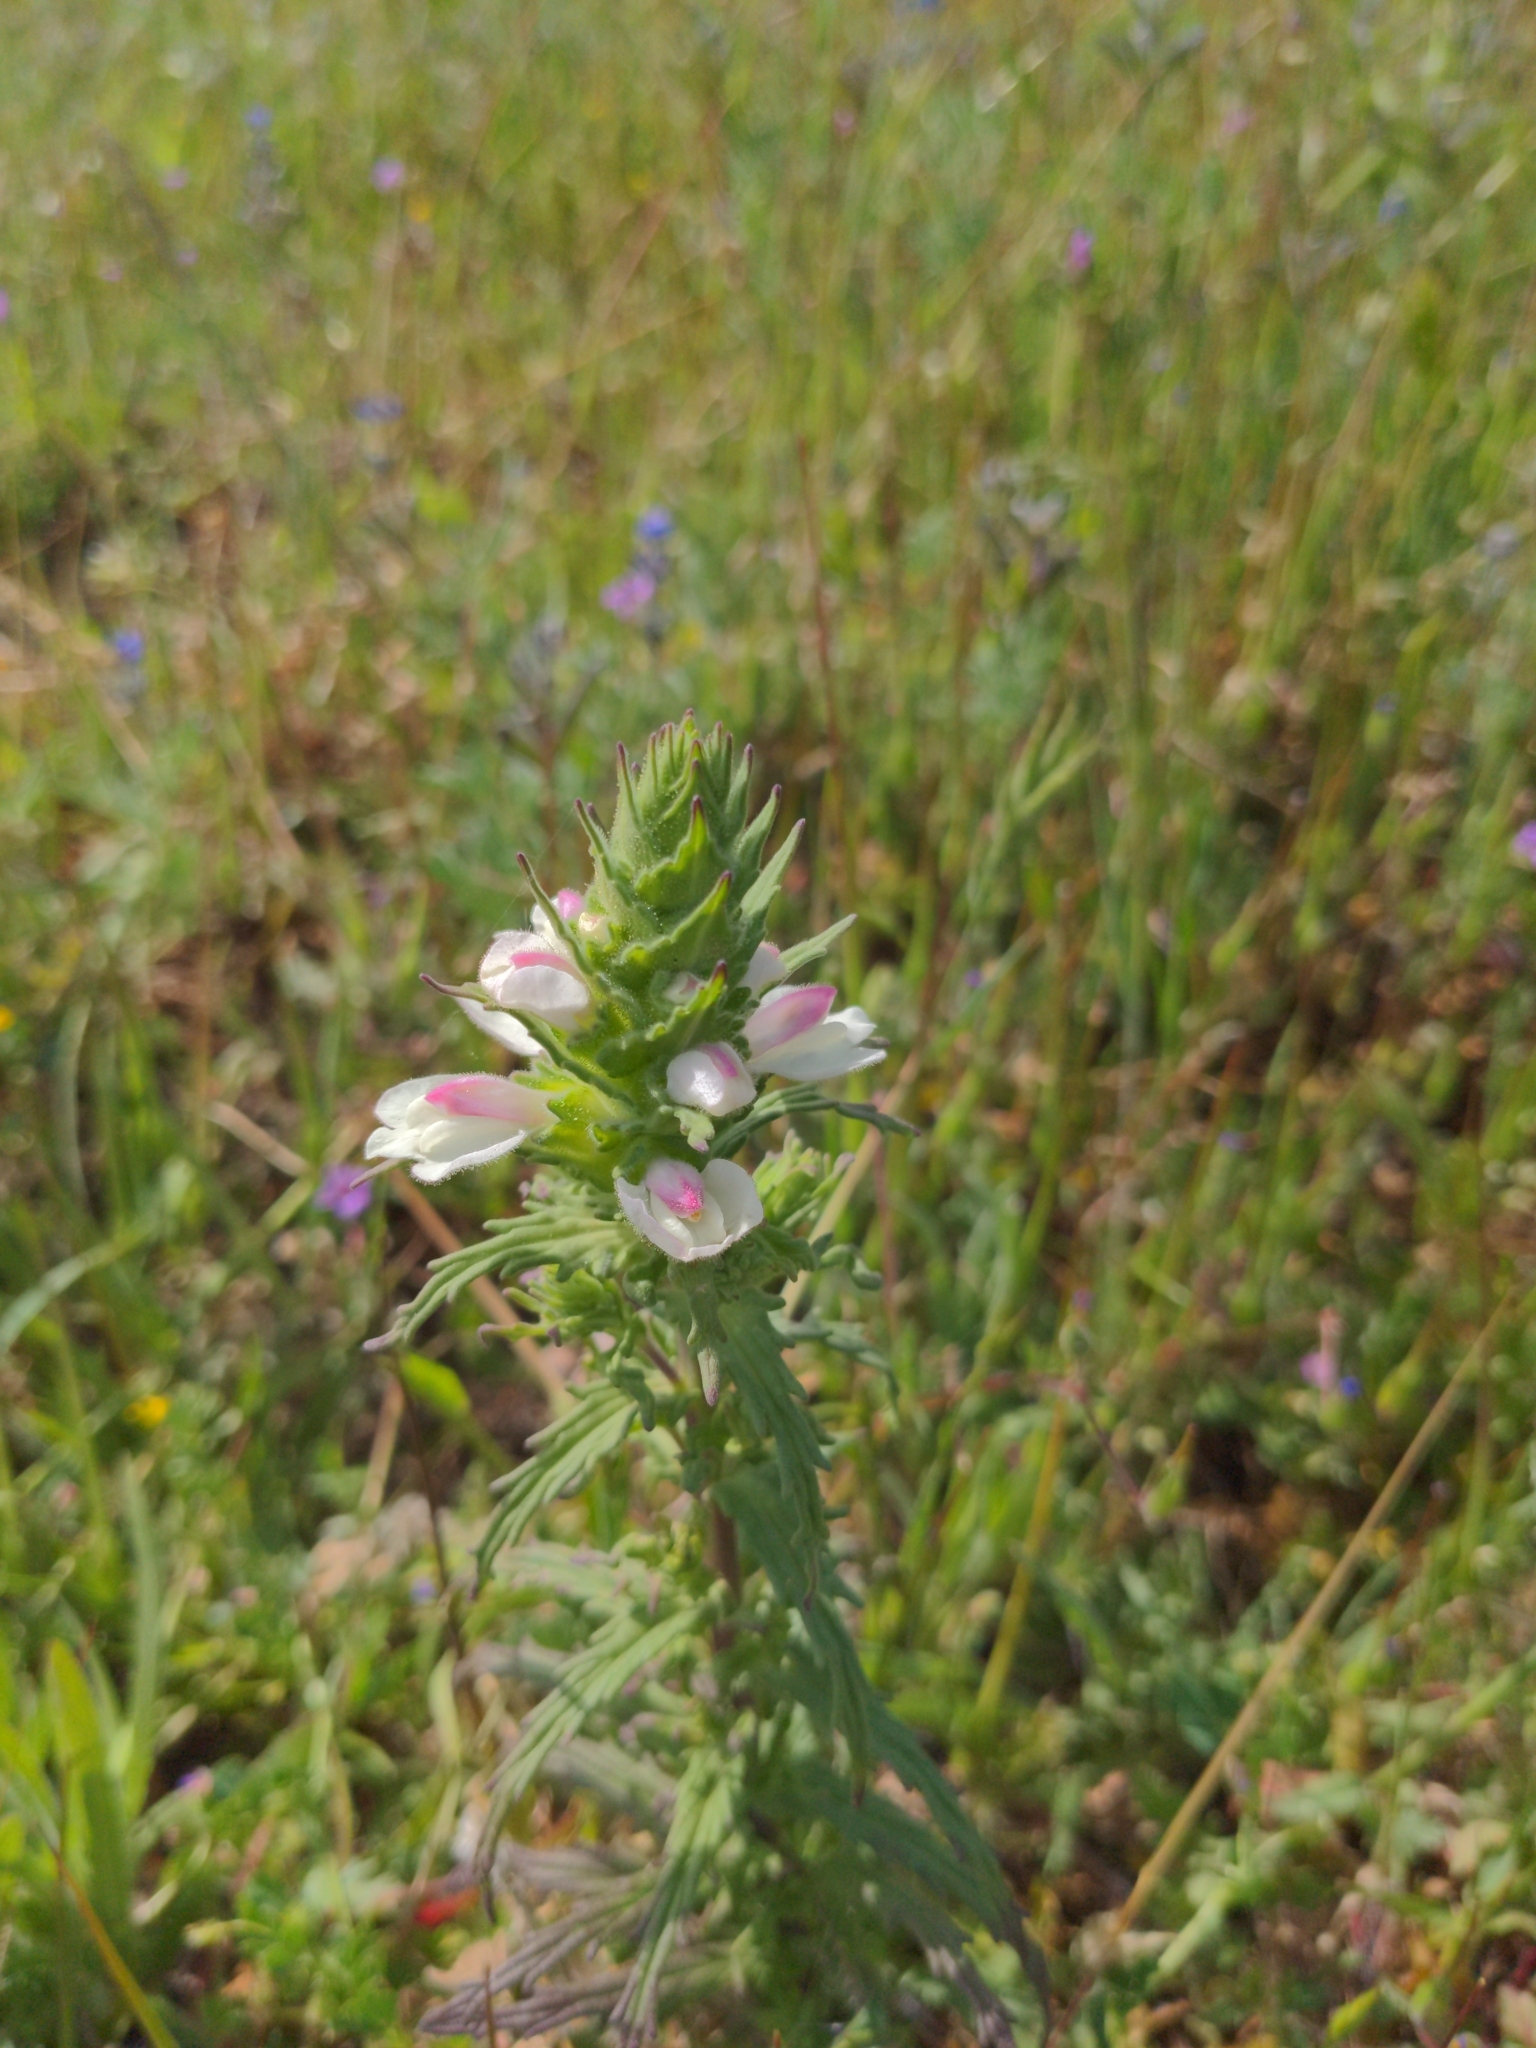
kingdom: Plantae
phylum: Tracheophyta
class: Magnoliopsida
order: Lamiales
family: Orobanchaceae
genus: Bellardia
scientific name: Bellardia trixago
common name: Mediterranean lineseed
